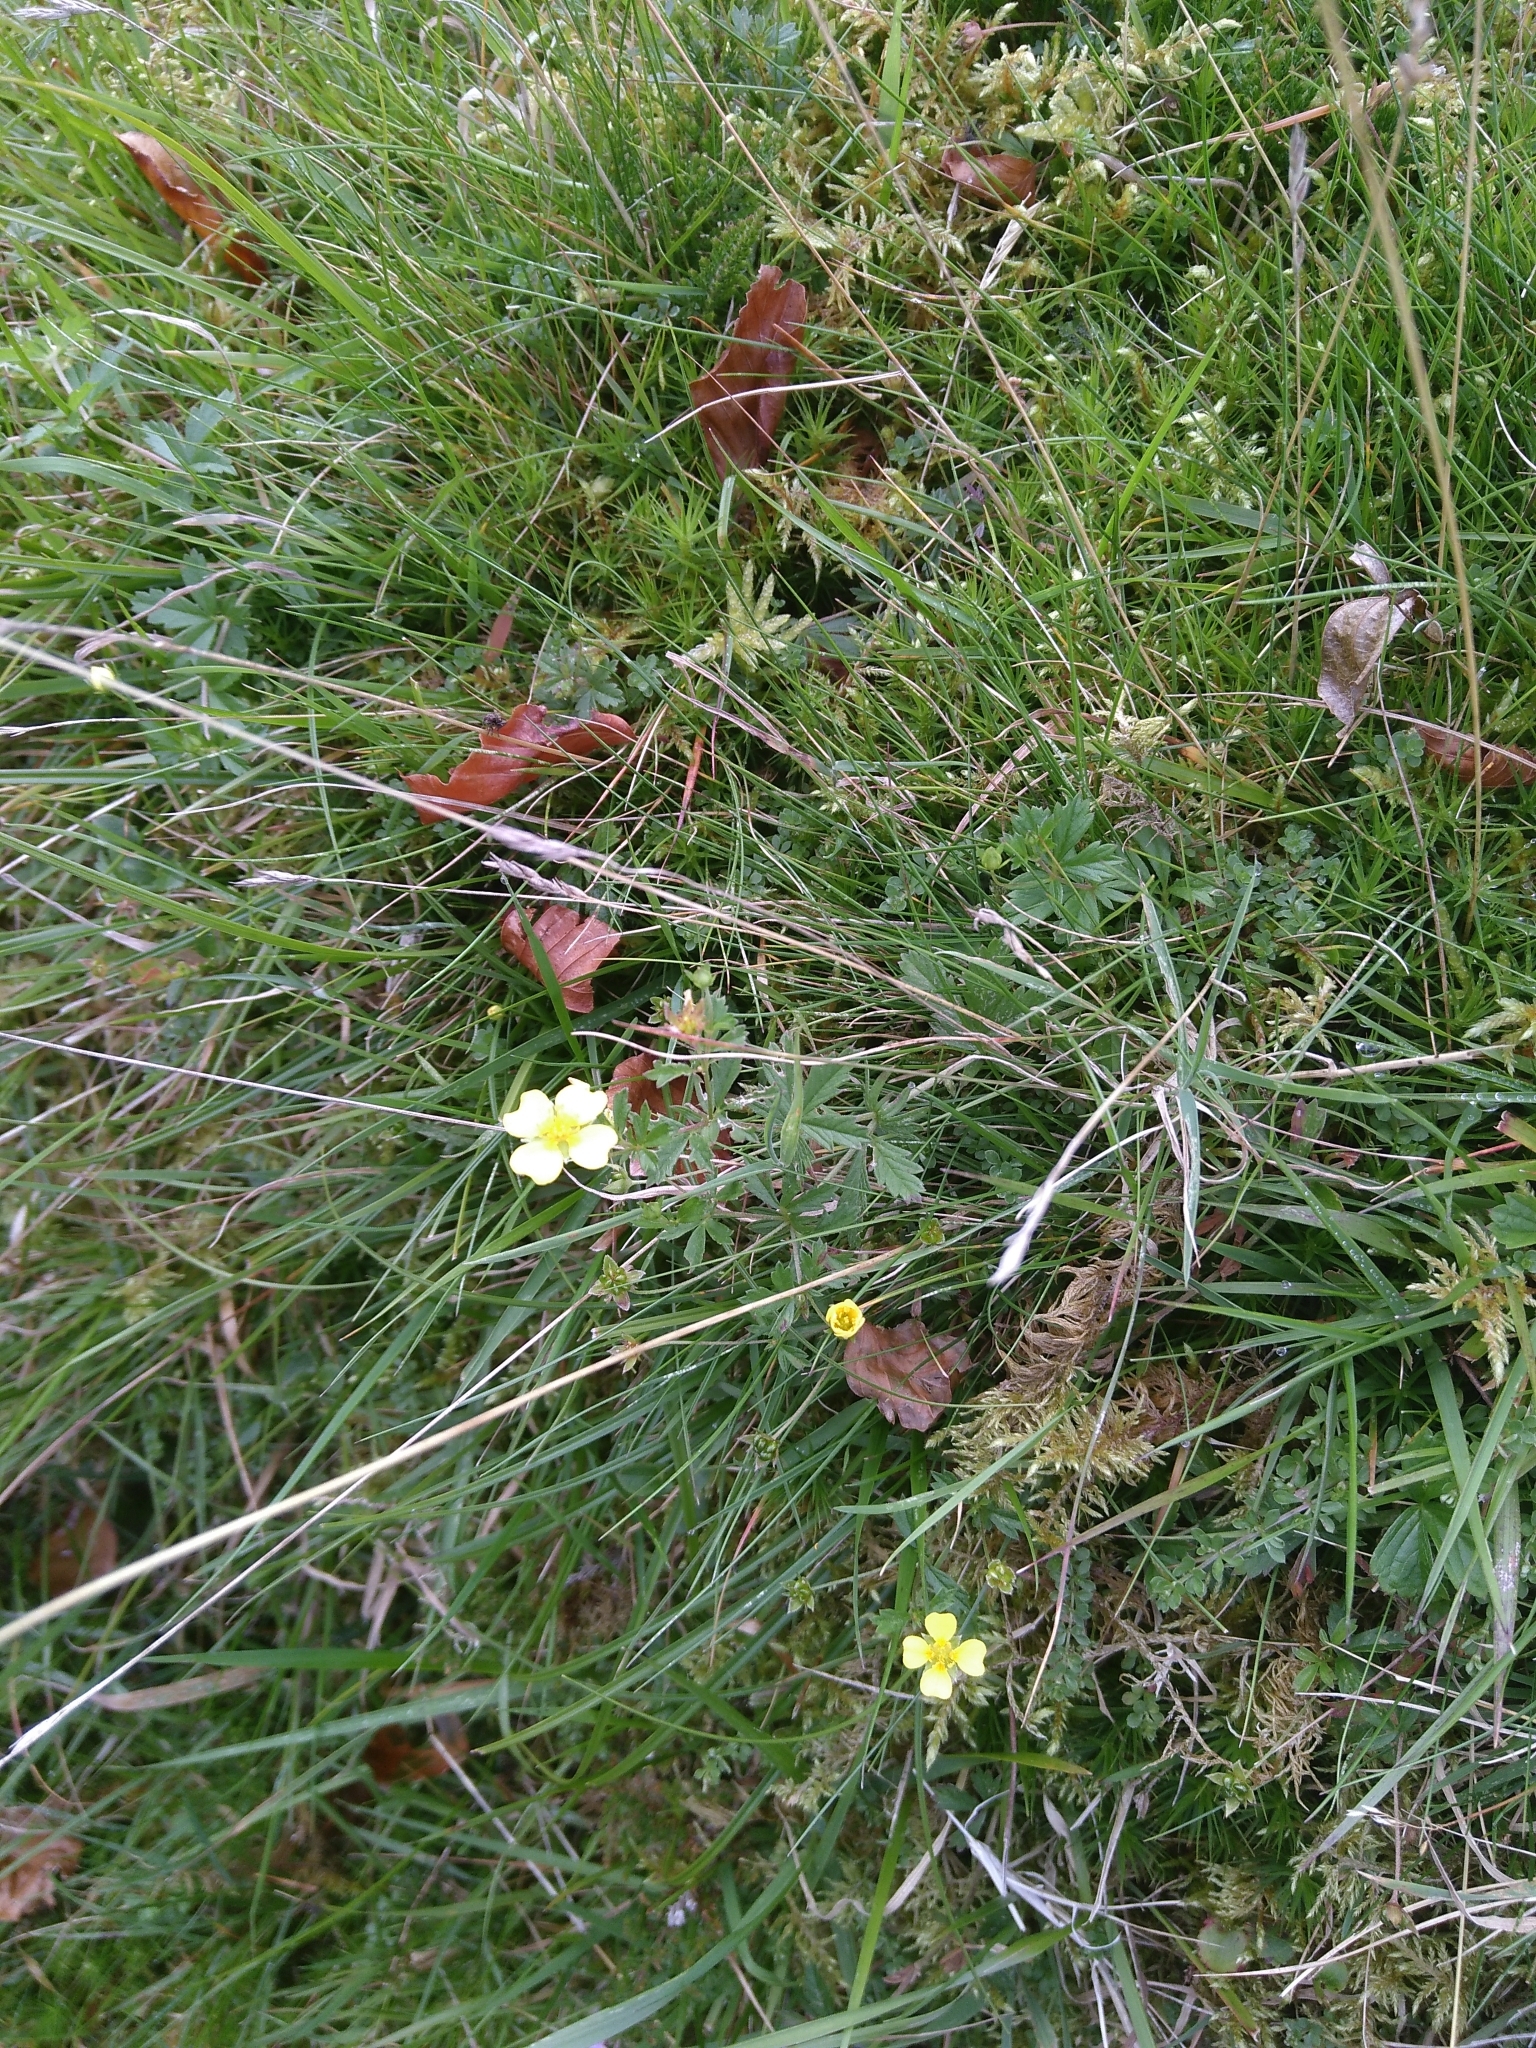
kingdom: Plantae
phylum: Tracheophyta
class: Magnoliopsida
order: Rosales
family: Rosaceae
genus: Potentilla
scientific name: Potentilla erecta
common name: Tormentil
